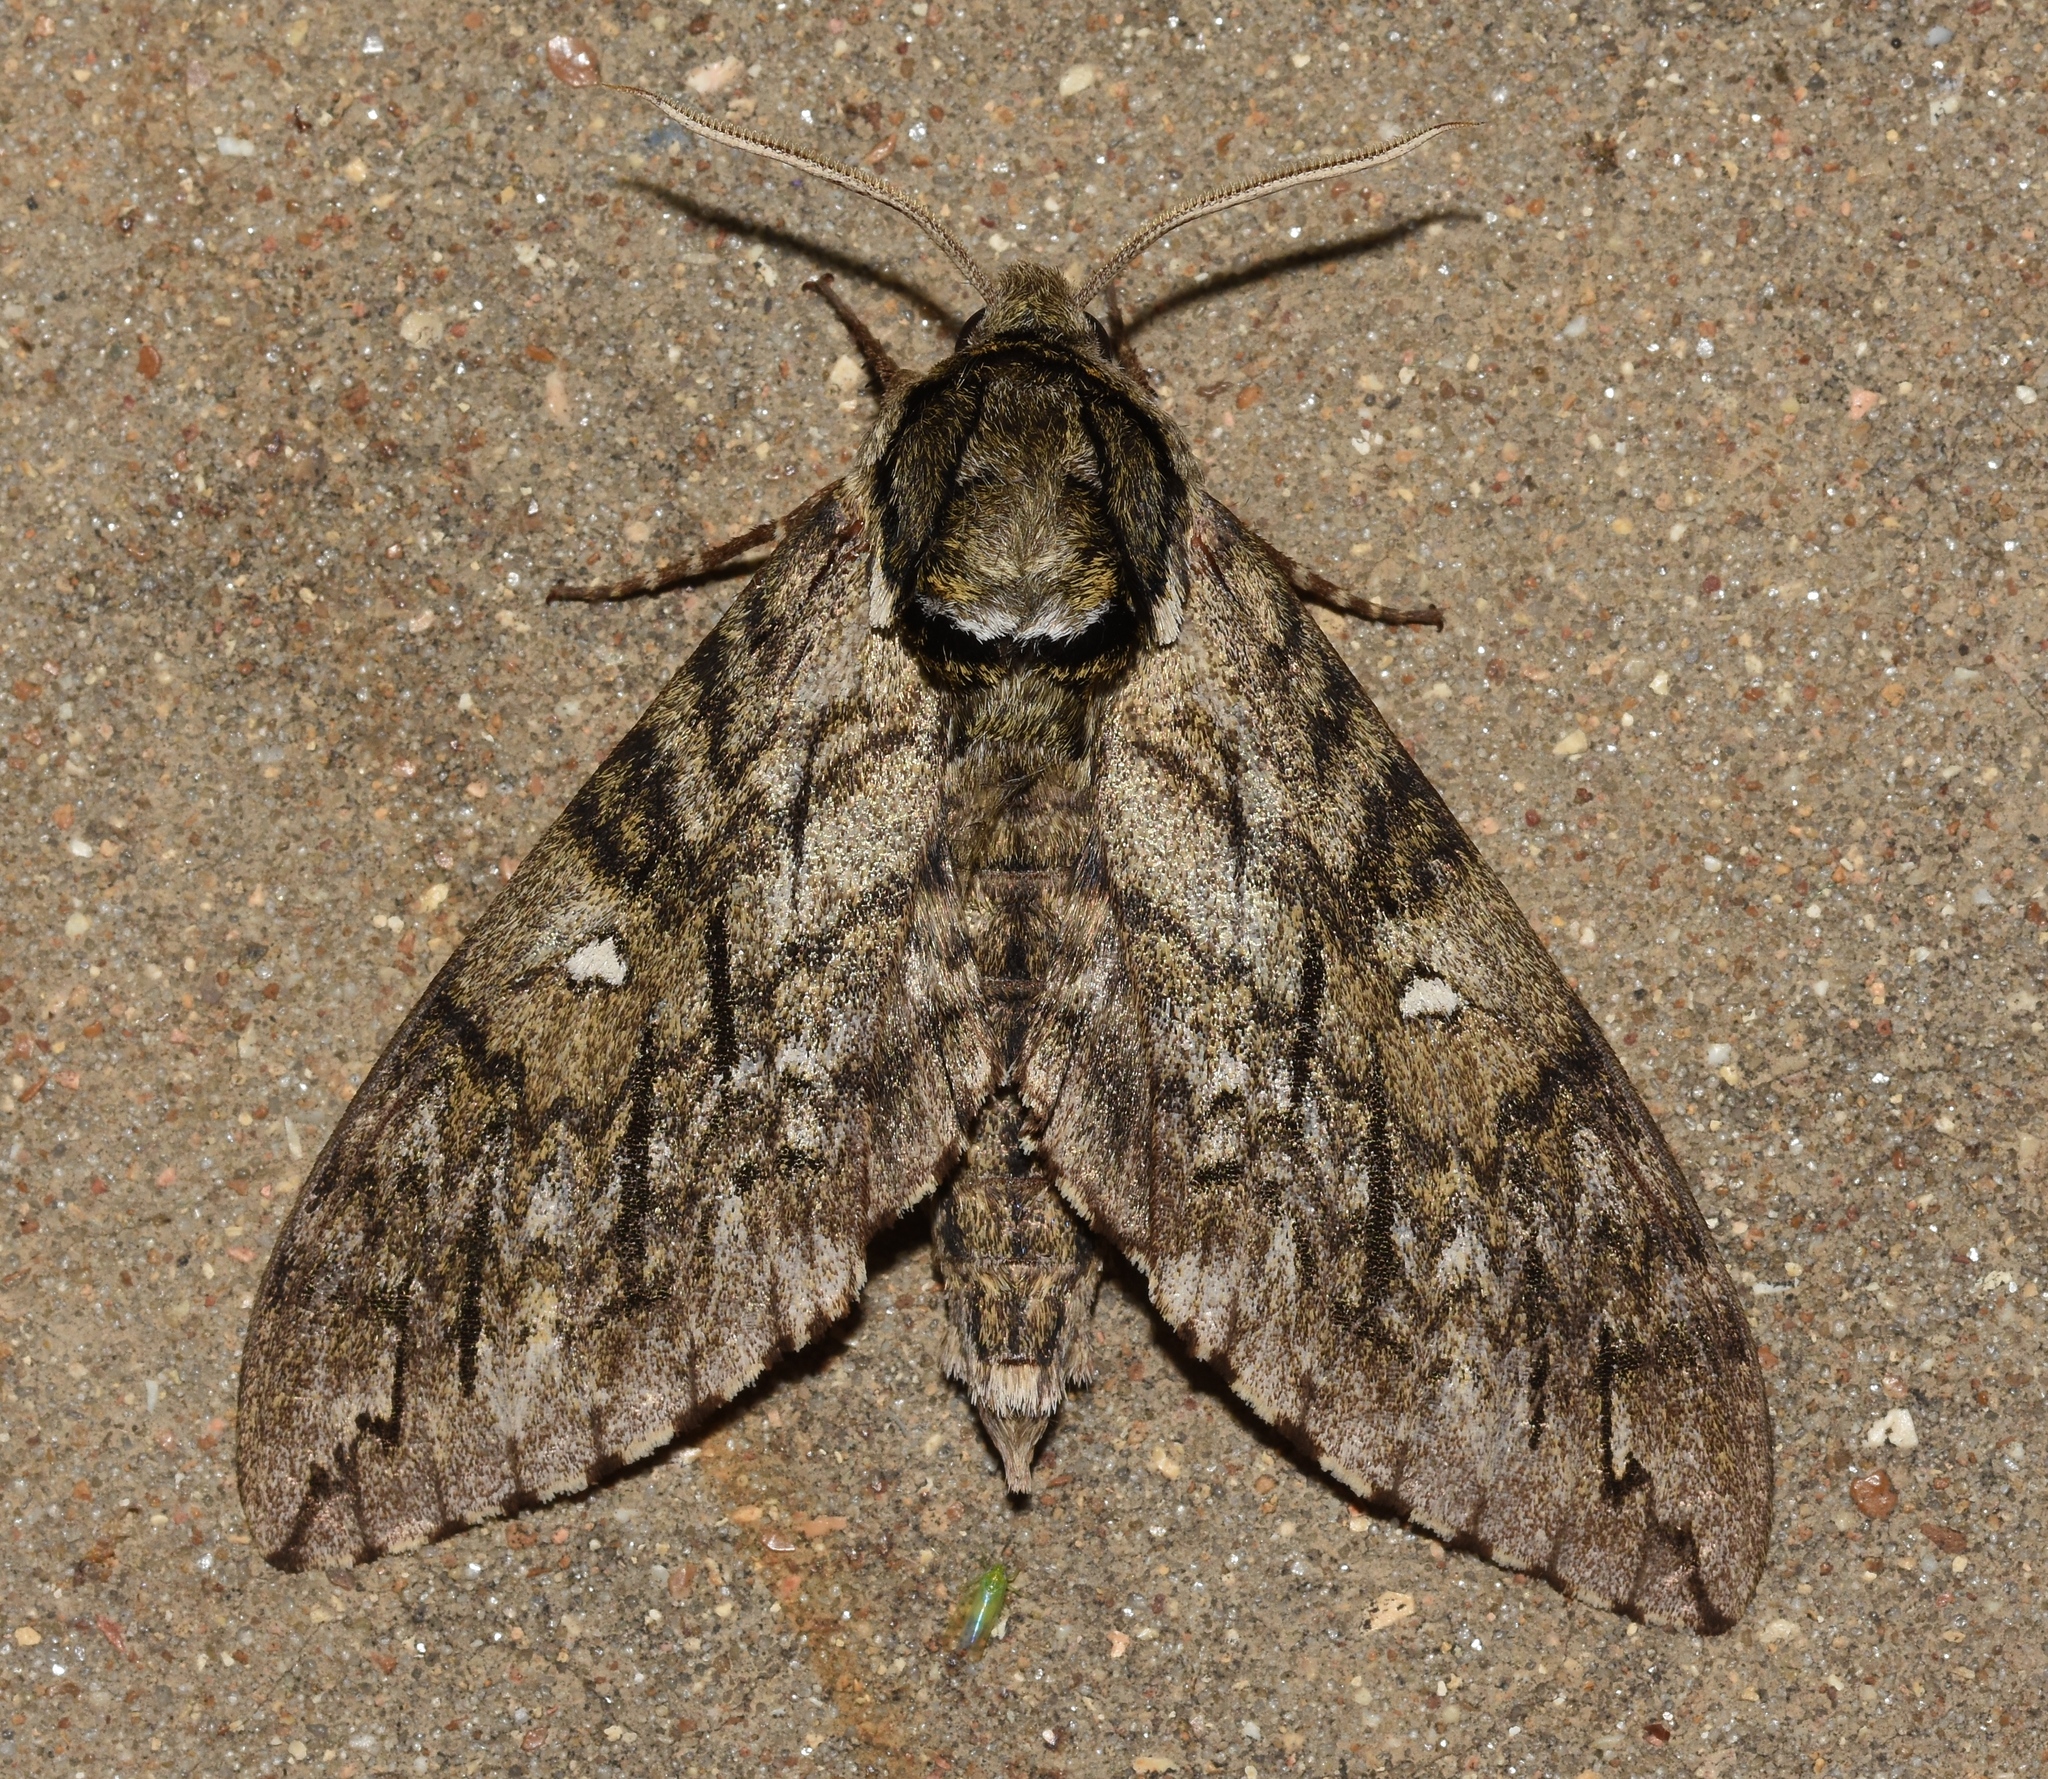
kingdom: Animalia
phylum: Arthropoda
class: Insecta
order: Lepidoptera
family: Sphingidae
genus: Ceratomia
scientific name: Ceratomia undulosa
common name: Waved sphinx
